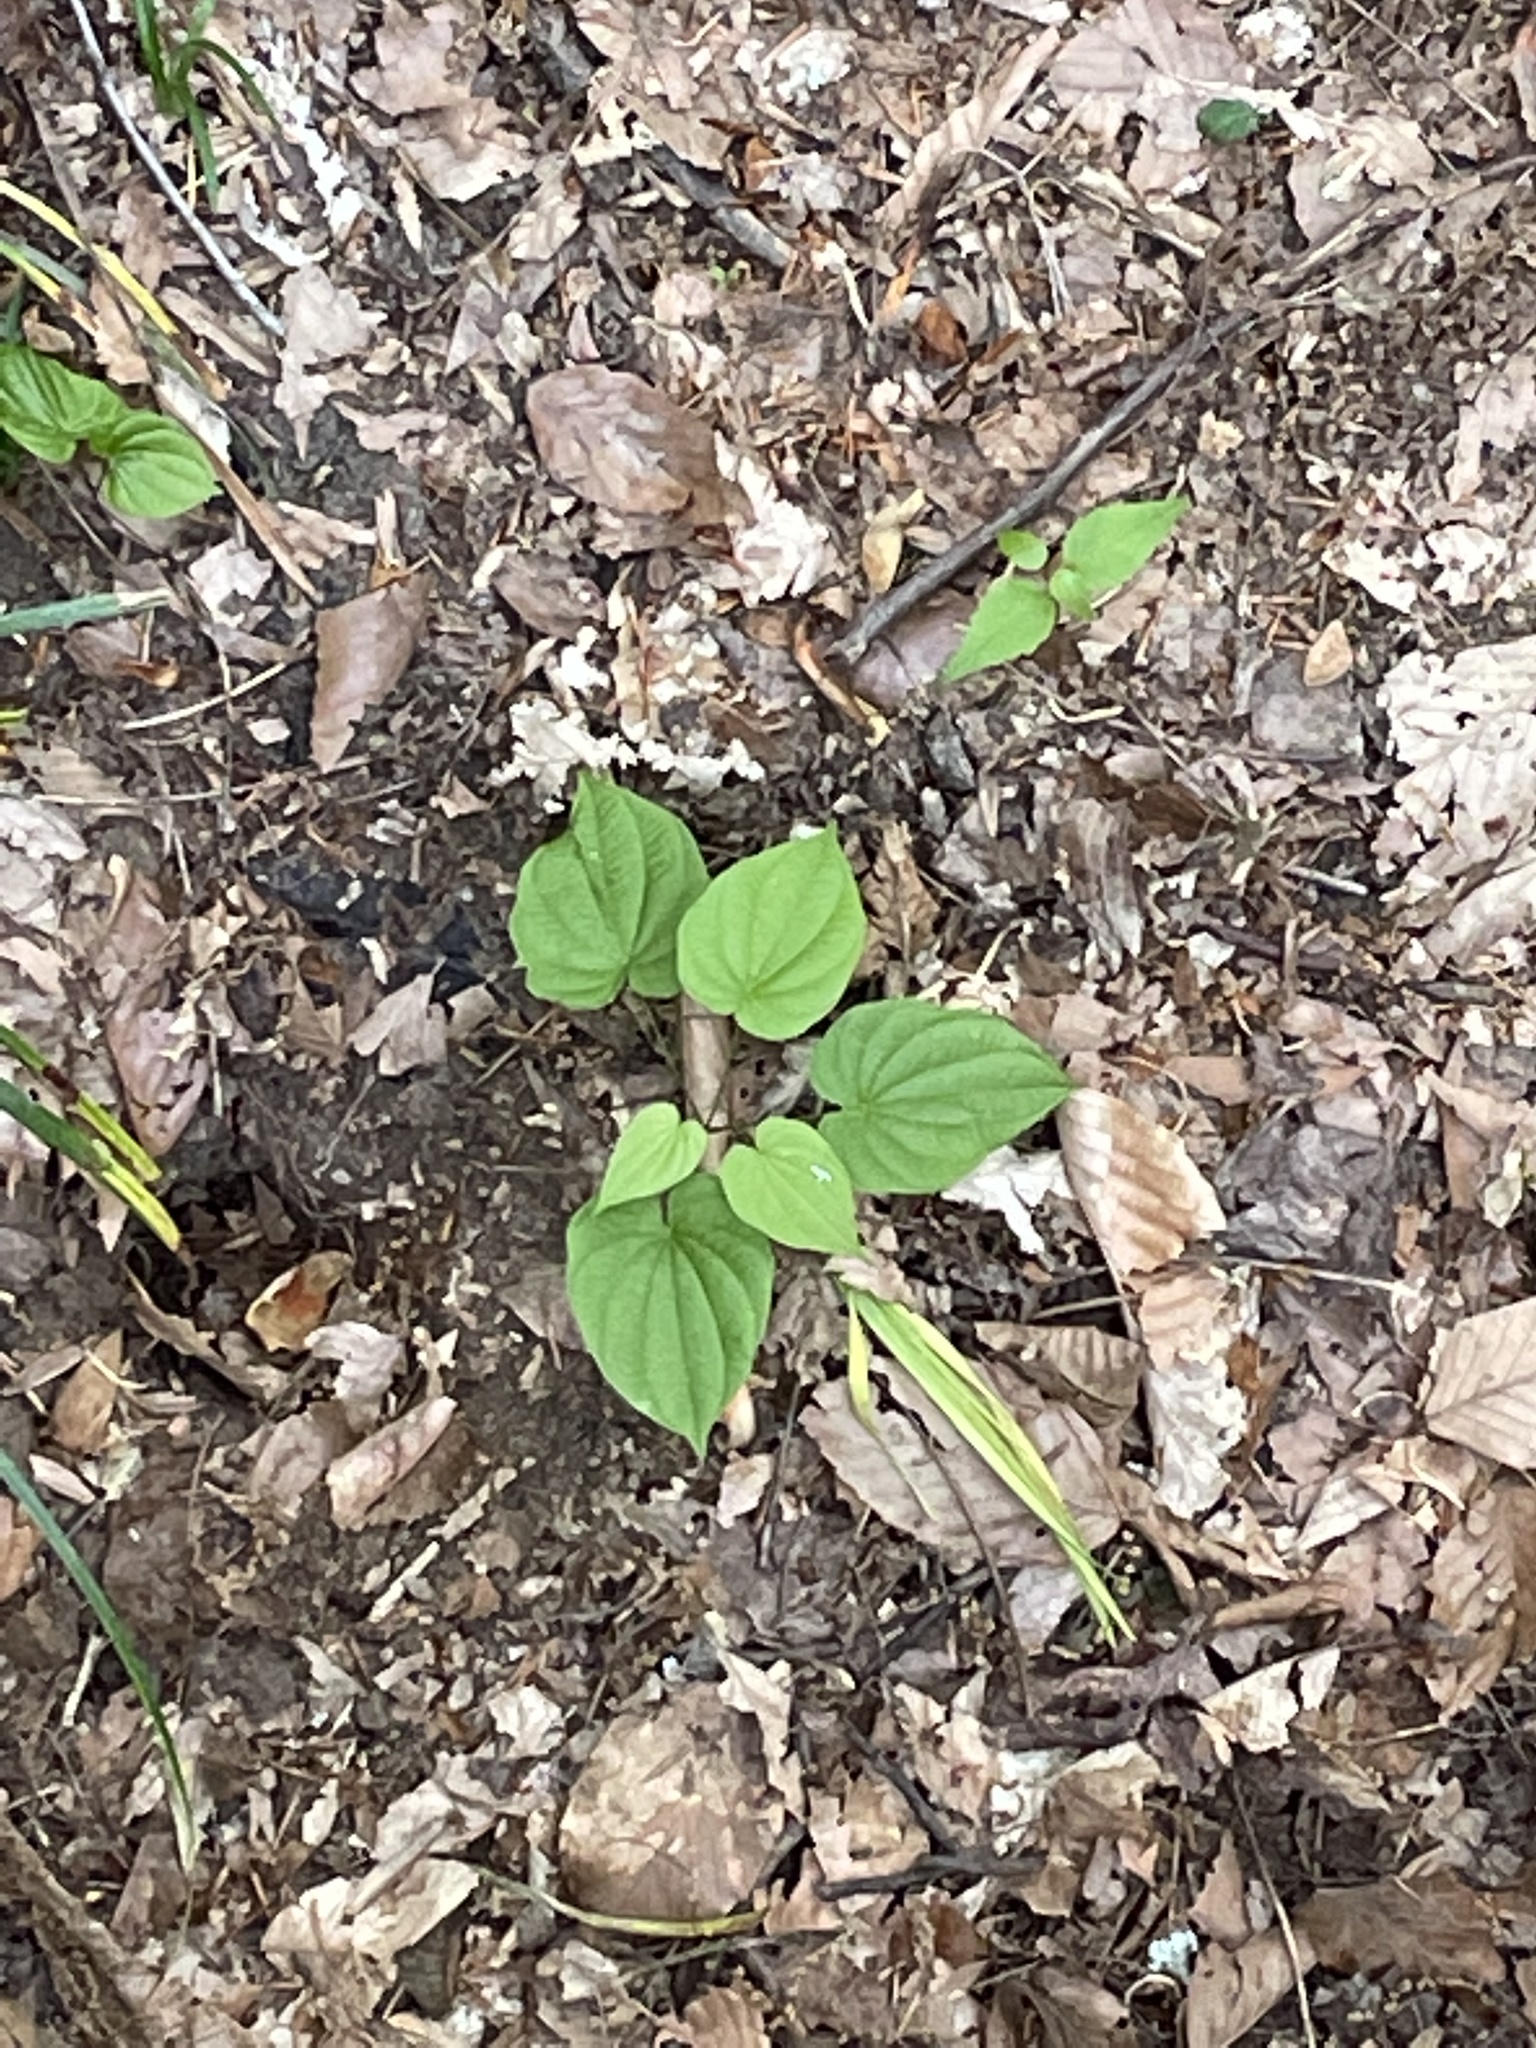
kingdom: Plantae
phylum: Tracheophyta
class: Liliopsida
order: Dioscoreales
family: Dioscoreaceae
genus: Dioscorea
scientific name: Dioscorea villosa
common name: Wild yam
